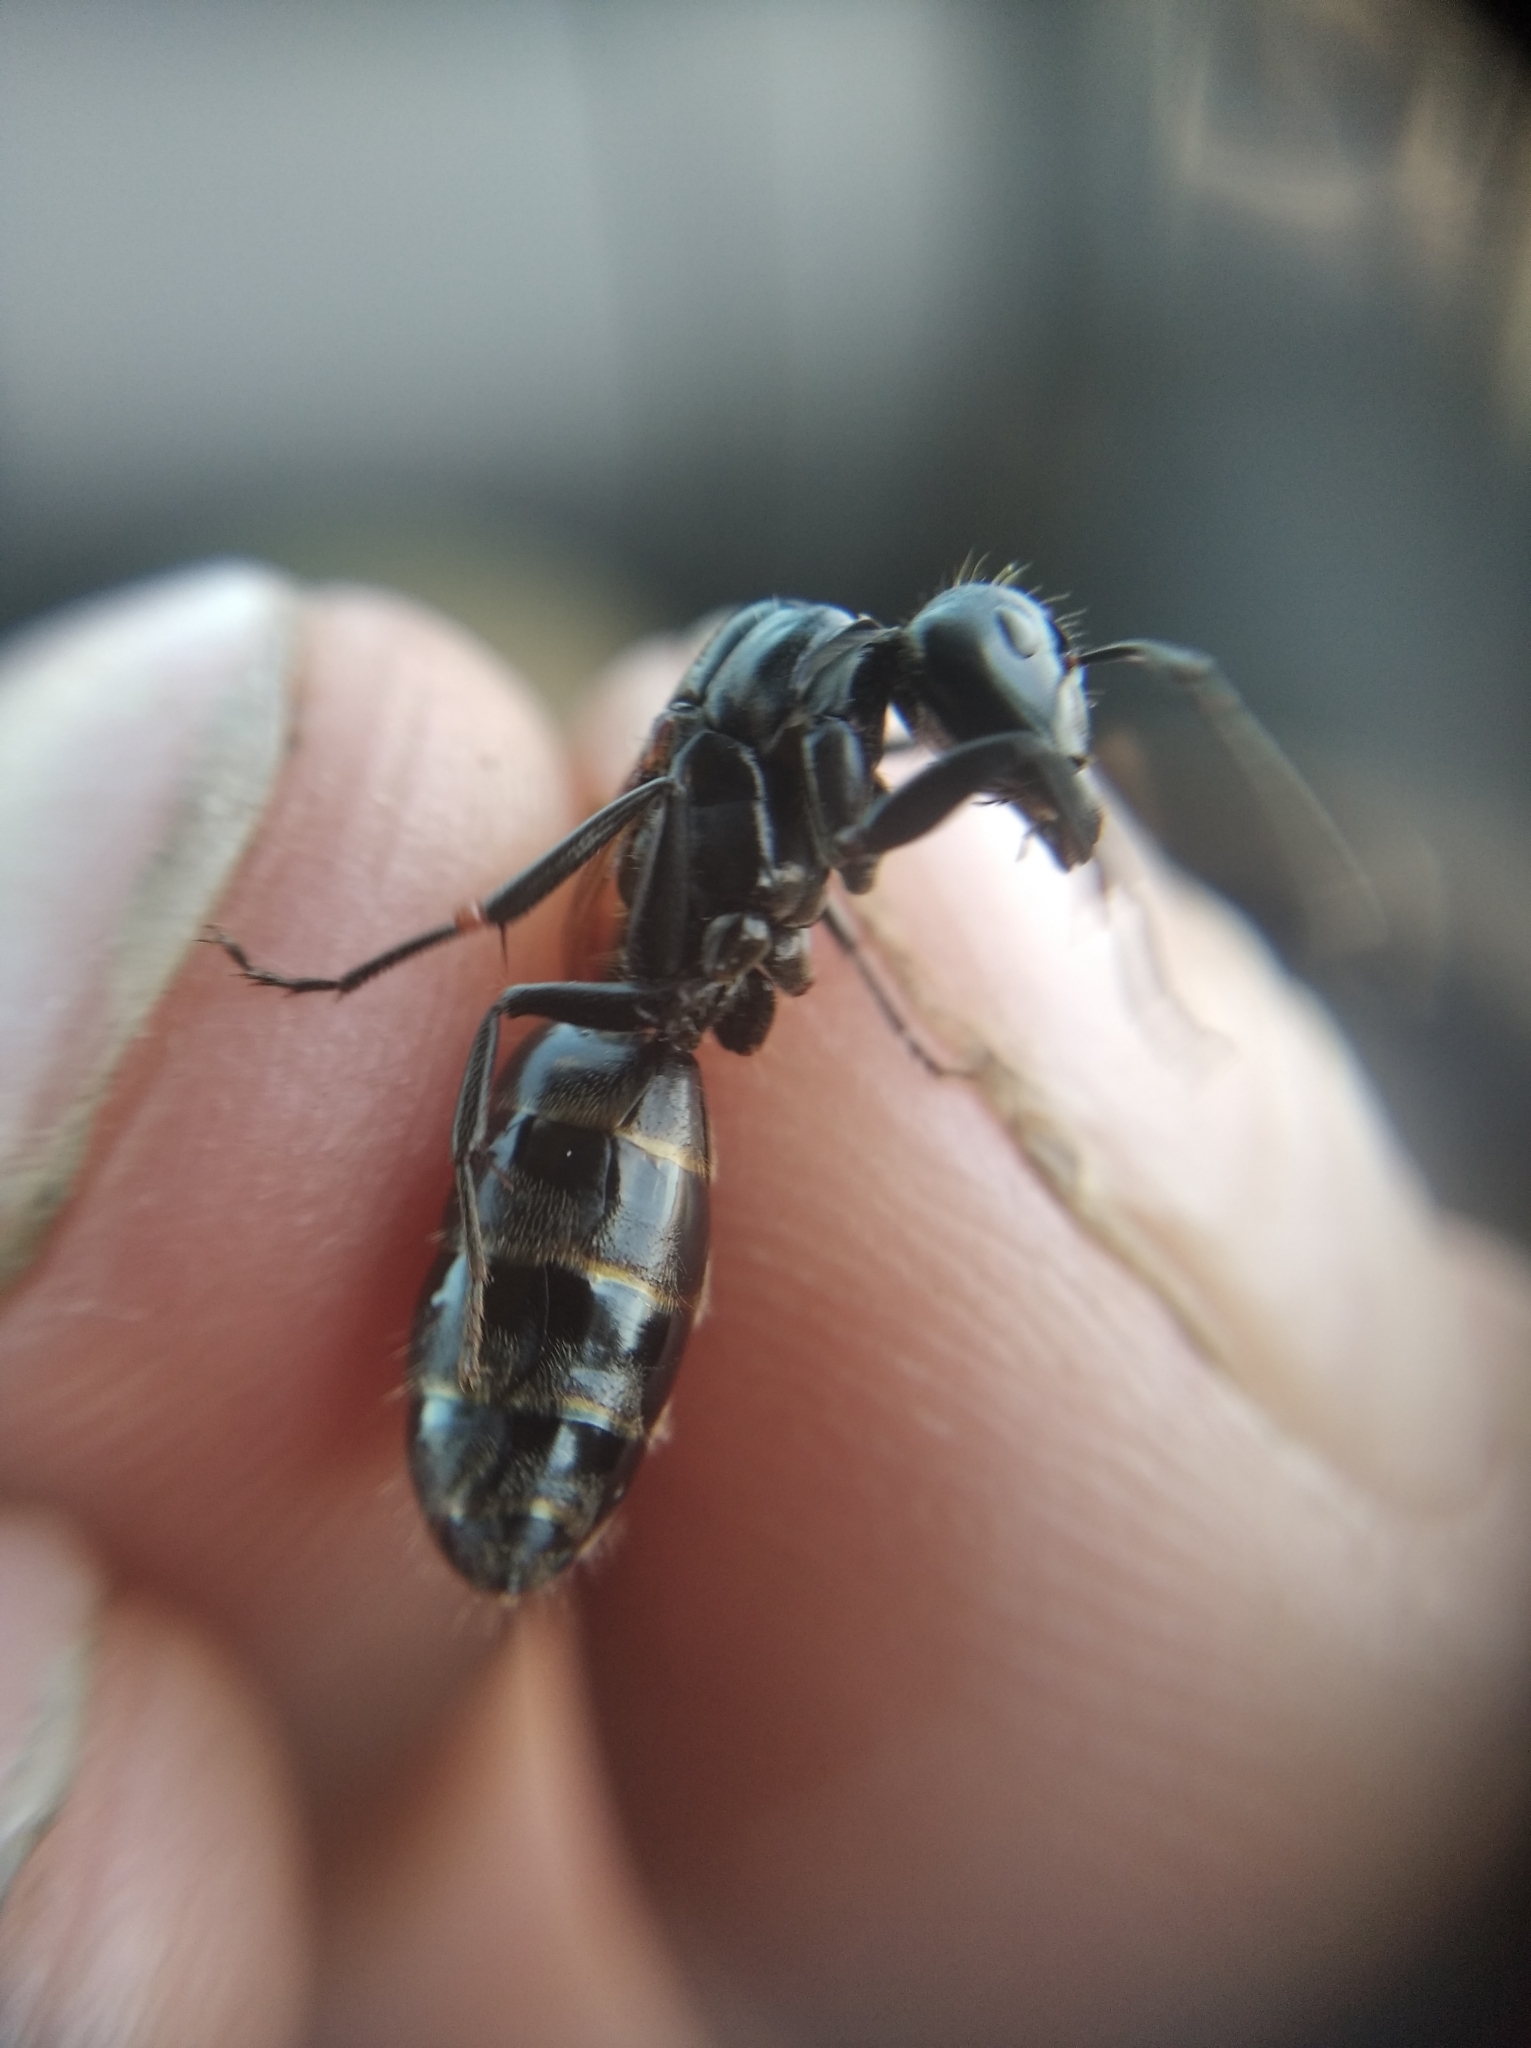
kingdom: Animalia
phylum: Arthropoda
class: Insecta
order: Hymenoptera
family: Formicidae
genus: Camponotus
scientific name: Camponotus vagus
